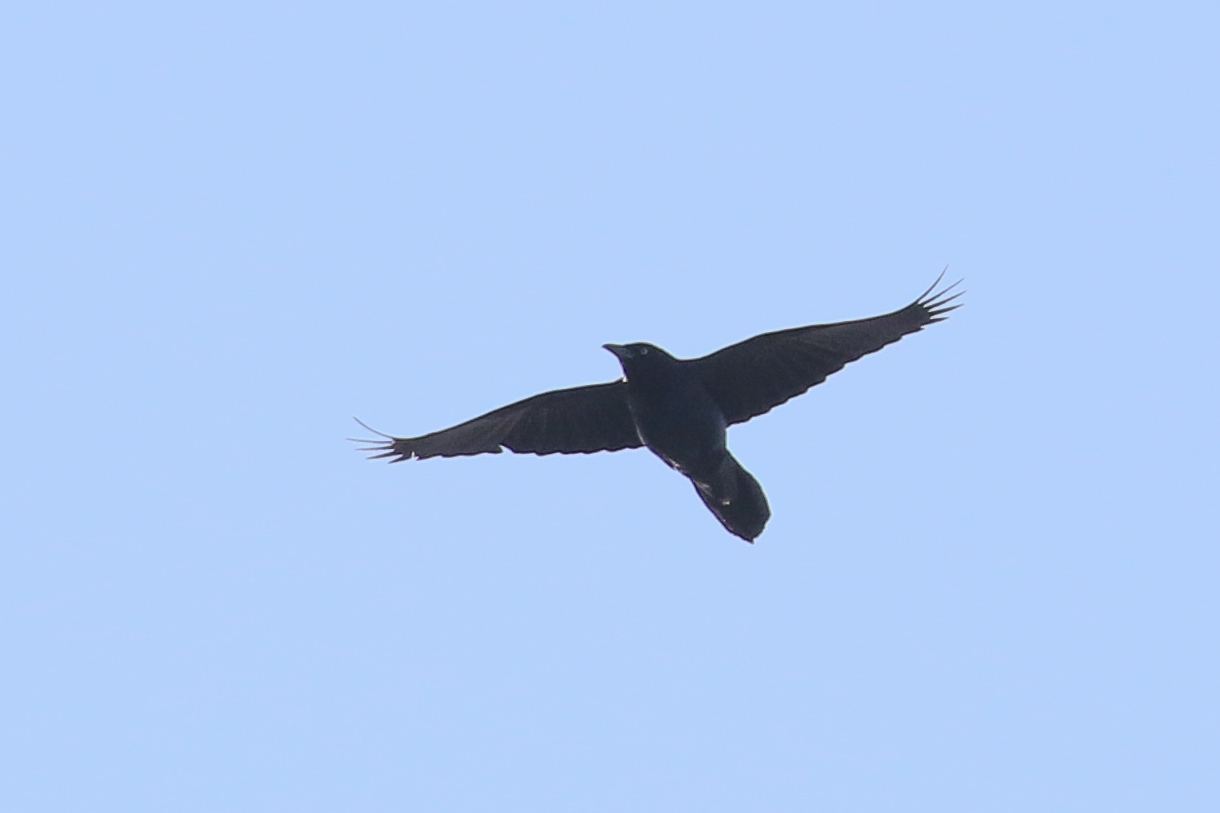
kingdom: Animalia
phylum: Chordata
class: Aves
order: Passeriformes
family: Icteridae
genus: Quiscalus
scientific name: Quiscalus major
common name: Boat-tailed grackle
